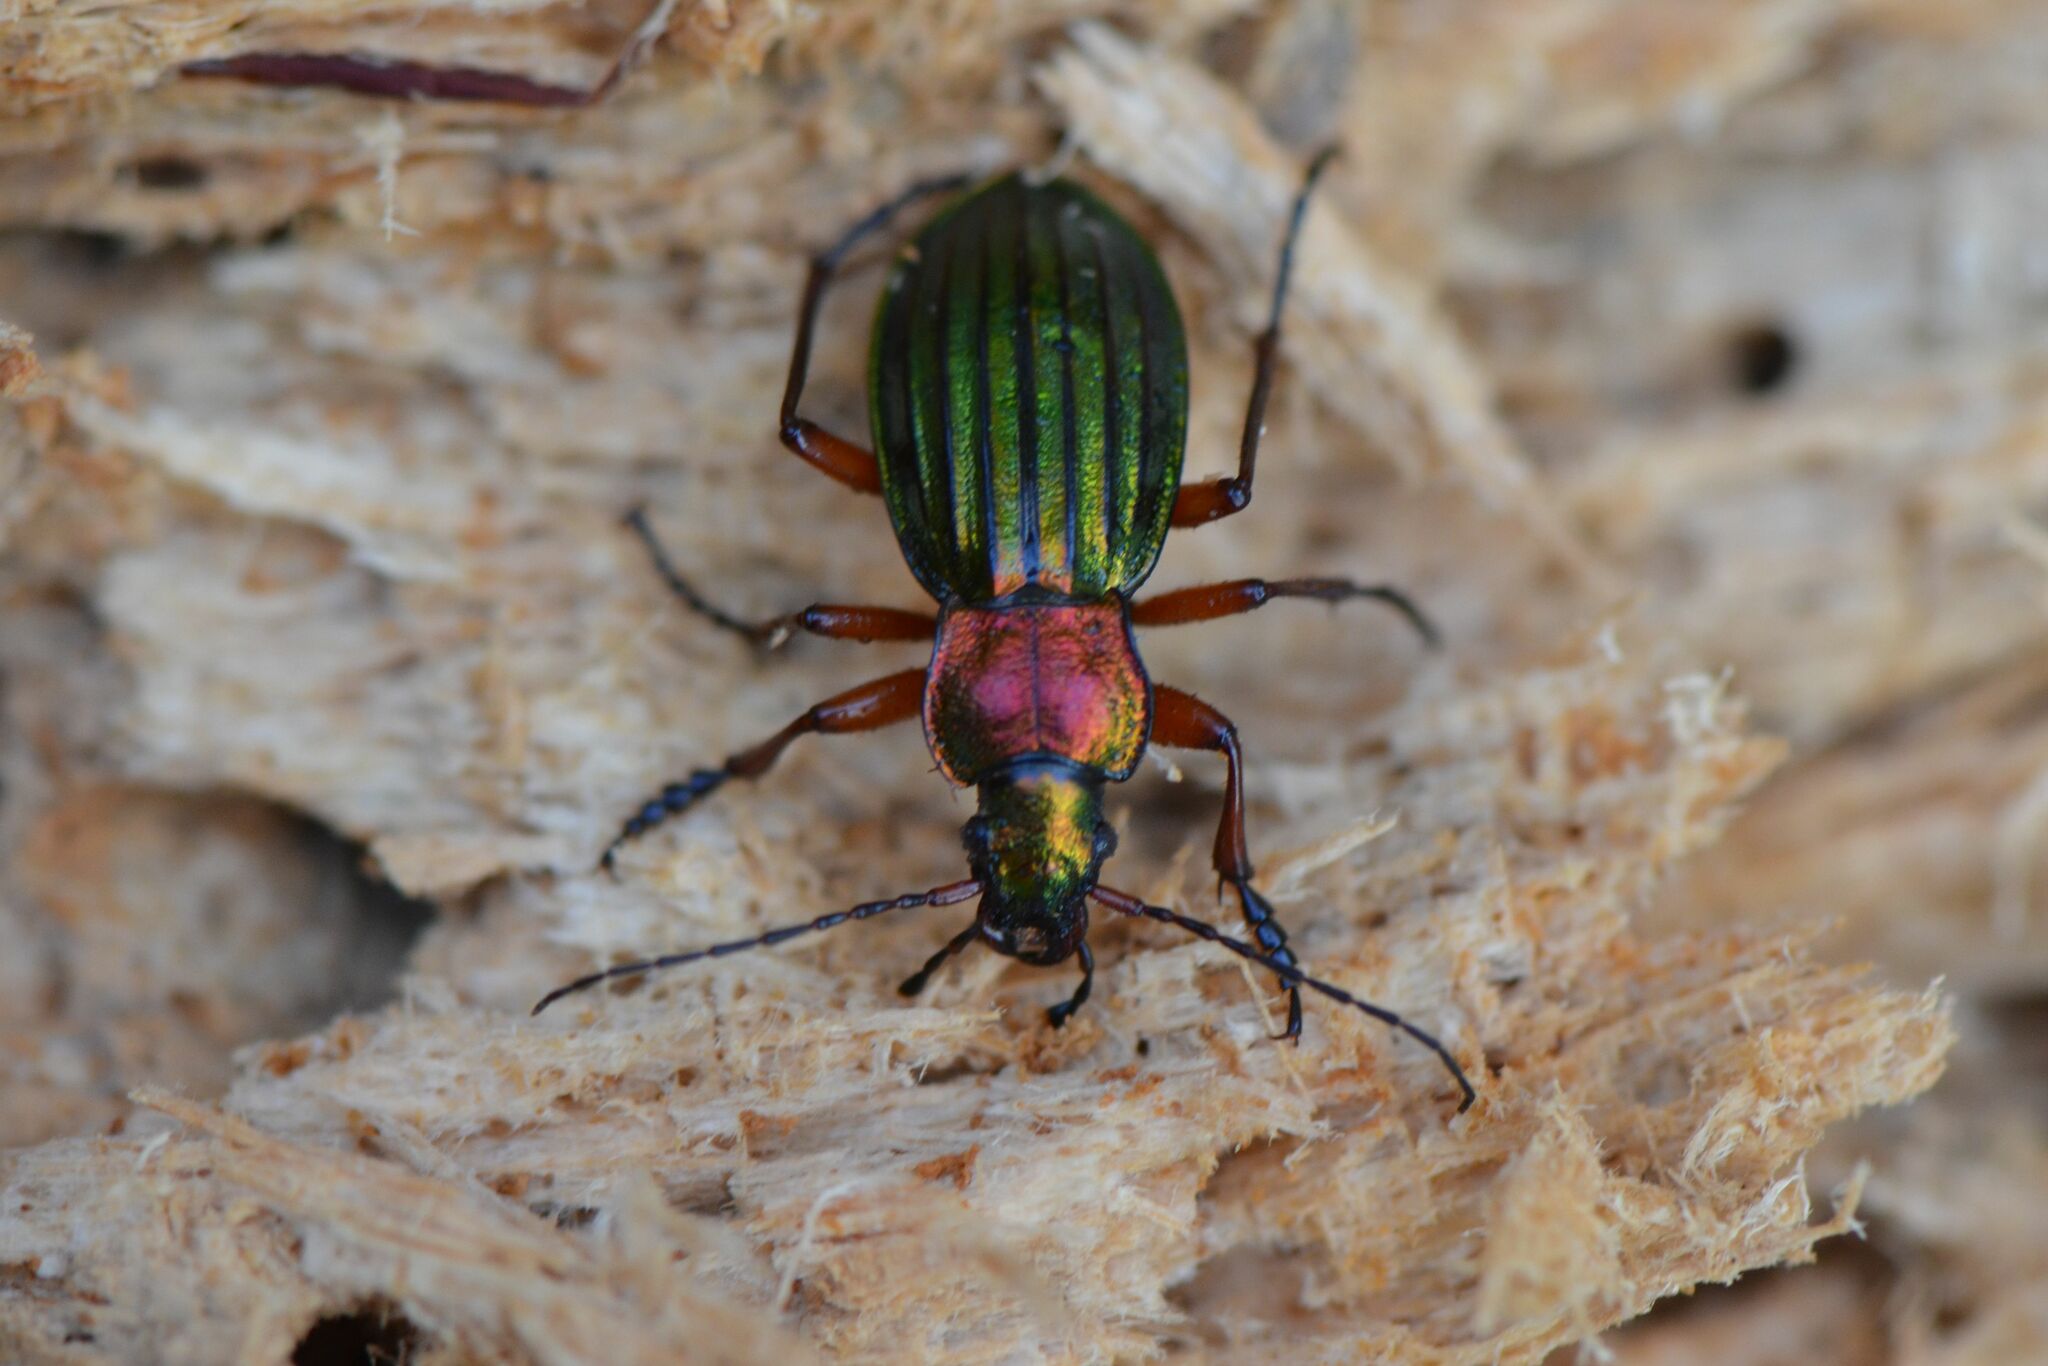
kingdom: Animalia
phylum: Arthropoda
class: Insecta
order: Coleoptera
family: Carabidae
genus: Carabus
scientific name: Carabus auronitens
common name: Carabus auronitens
